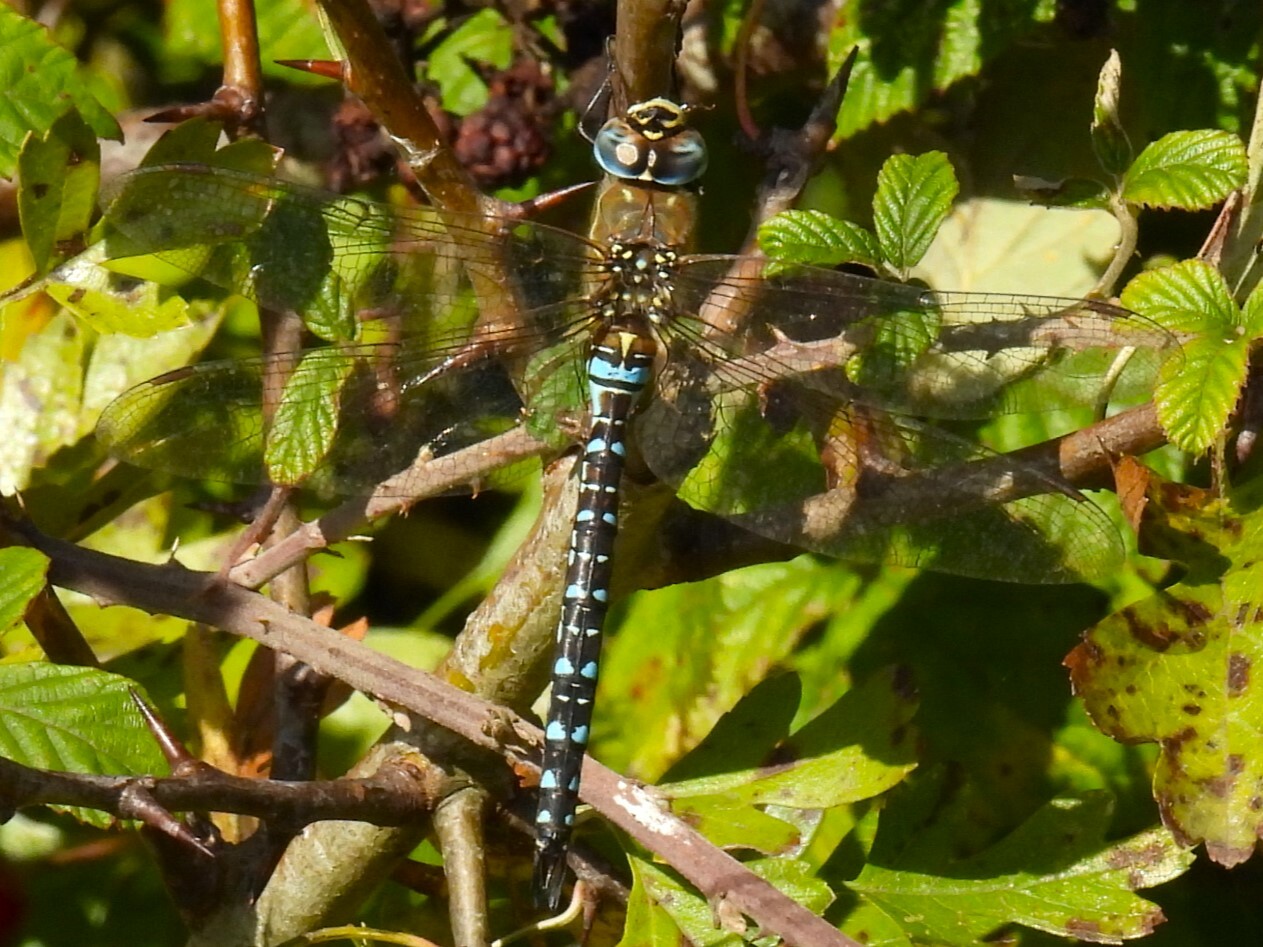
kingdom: Animalia
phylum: Arthropoda
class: Insecta
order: Odonata
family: Aeshnidae
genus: Aeshna
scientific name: Aeshna mixta
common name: Migrant hawker
